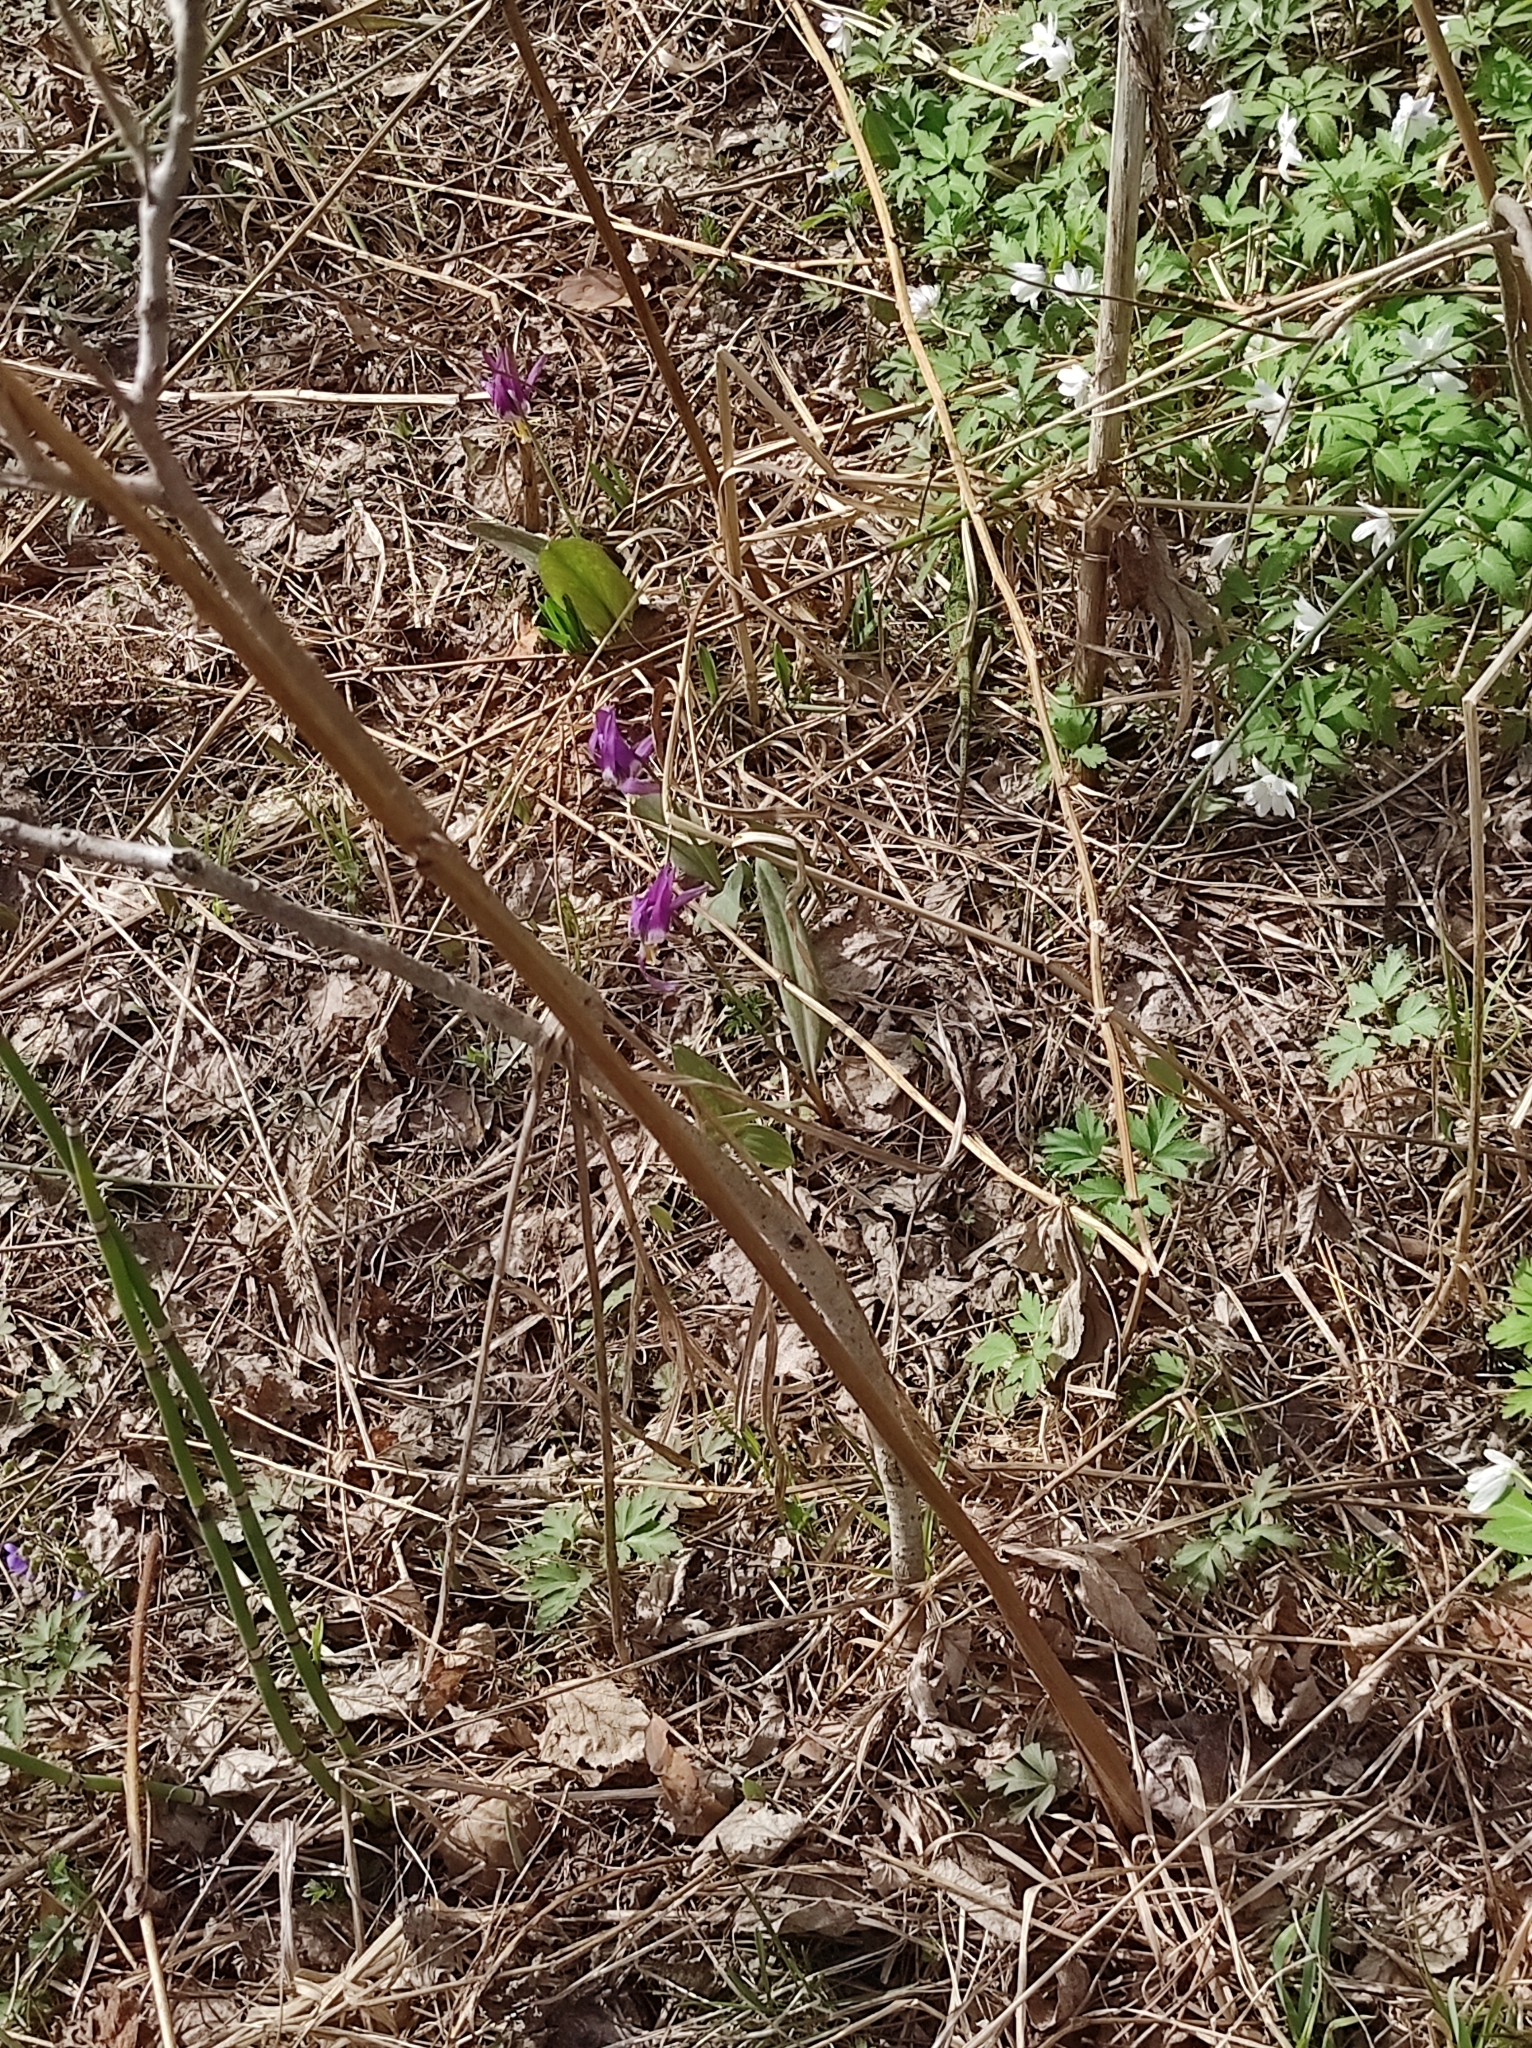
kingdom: Plantae
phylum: Tracheophyta
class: Liliopsida
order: Liliales
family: Liliaceae
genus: Erythronium
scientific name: Erythronium sibiricum
